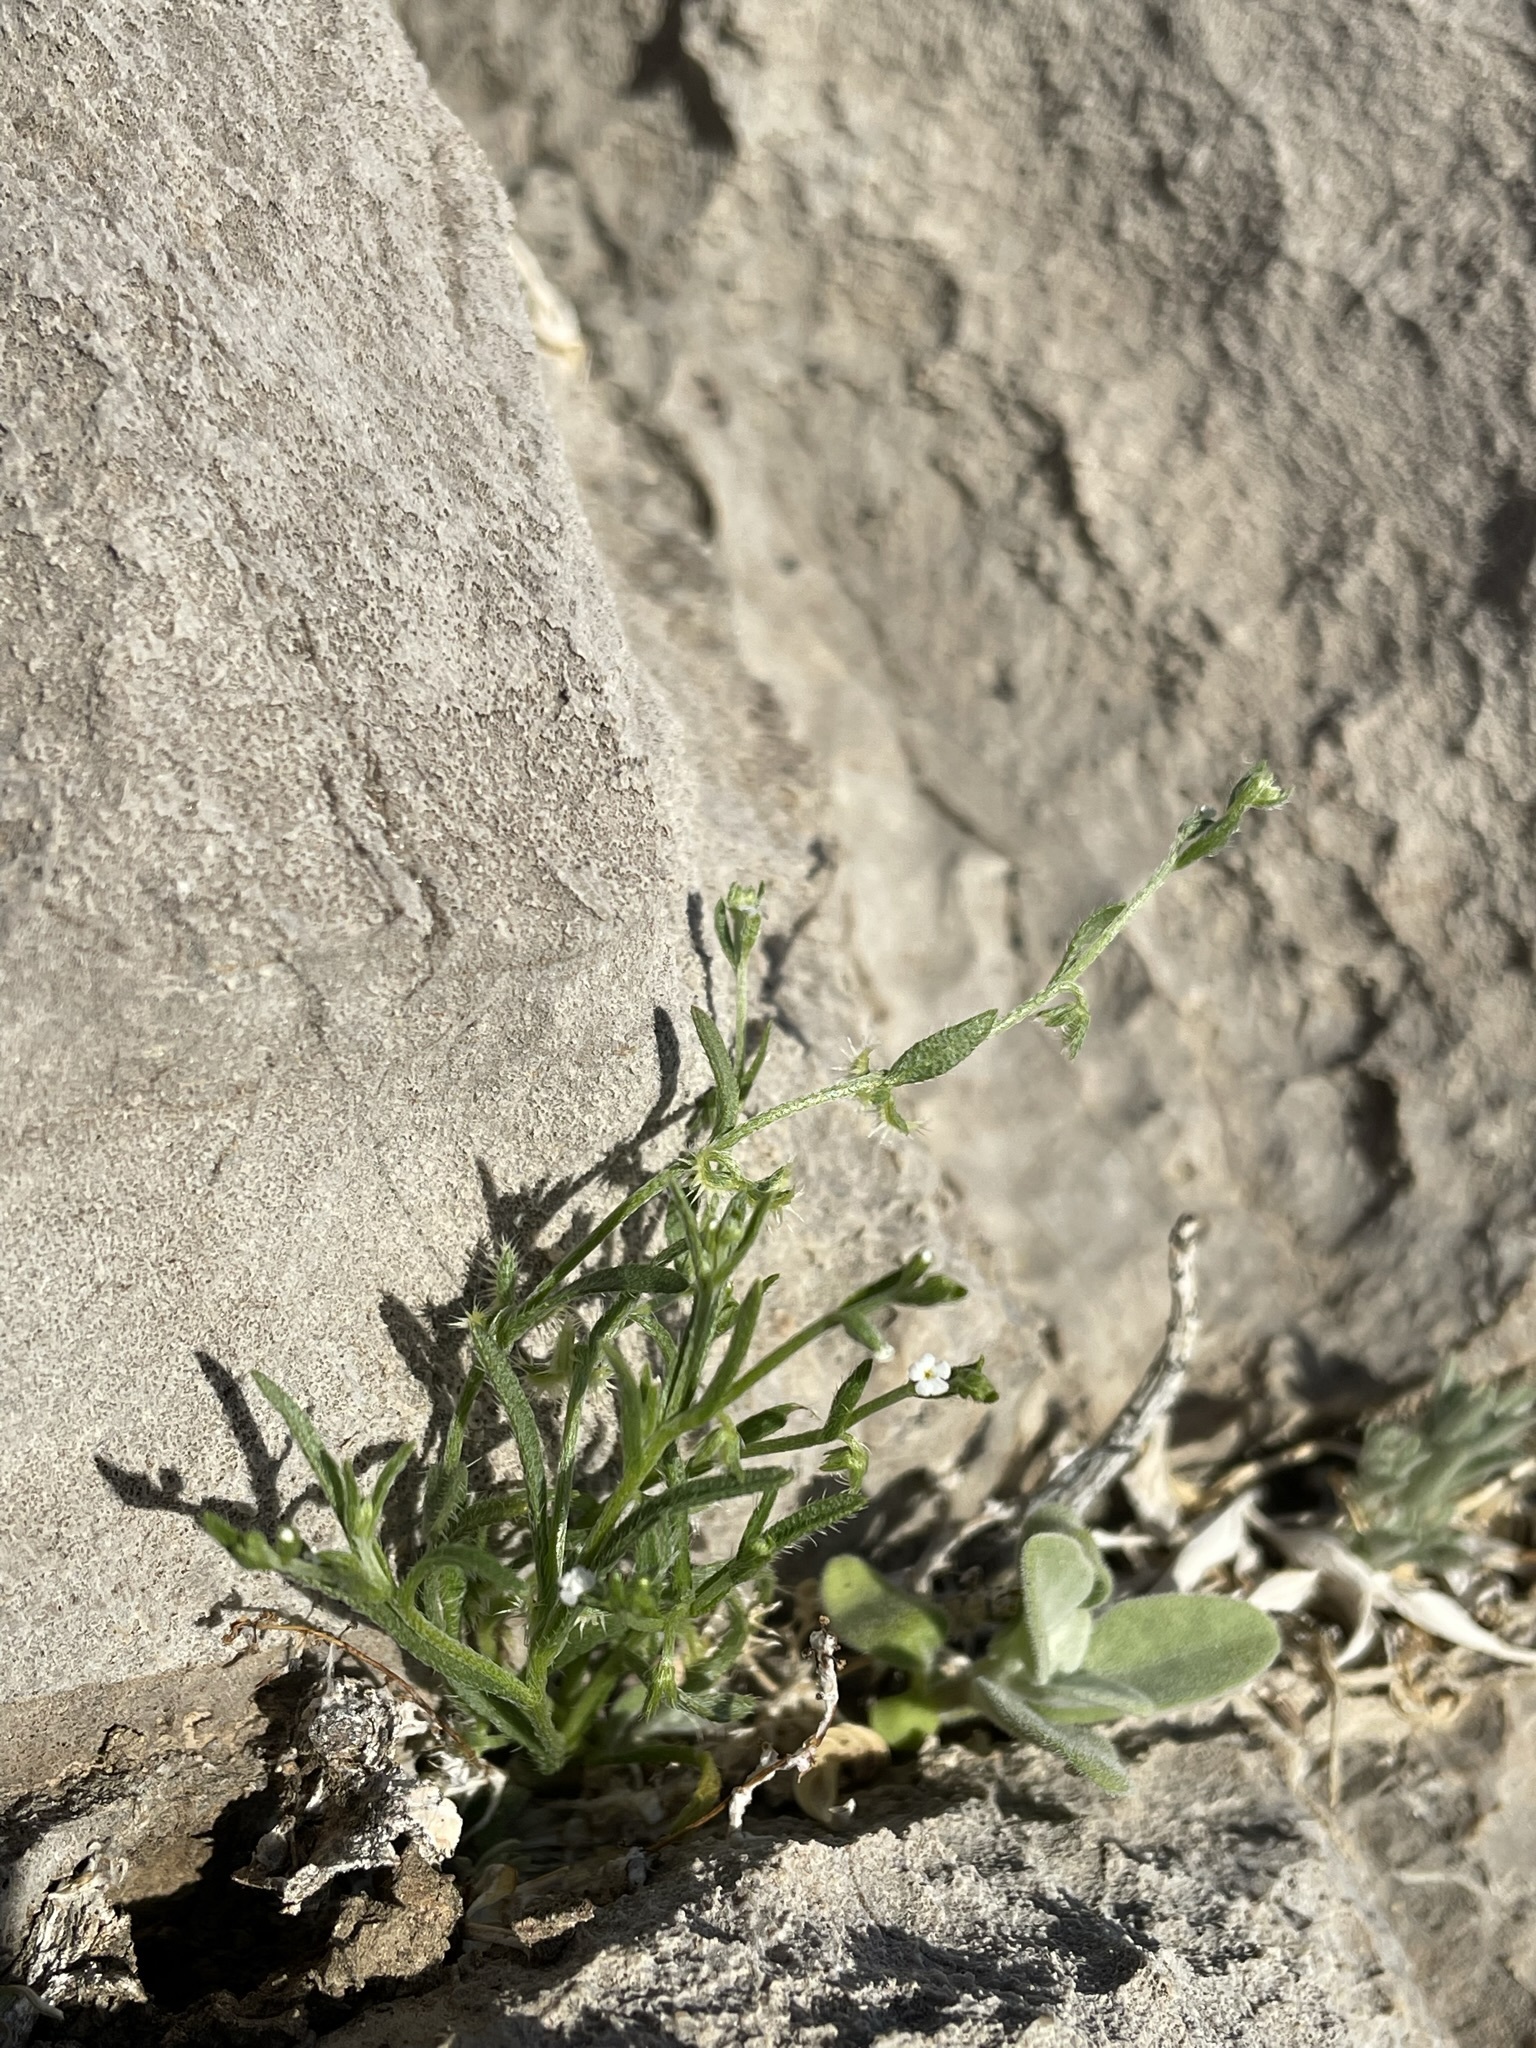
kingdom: Plantae
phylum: Tracheophyta
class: Magnoliopsida
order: Boraginales
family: Boraginaceae
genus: Pectocarya
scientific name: Pectocarya recurvata
